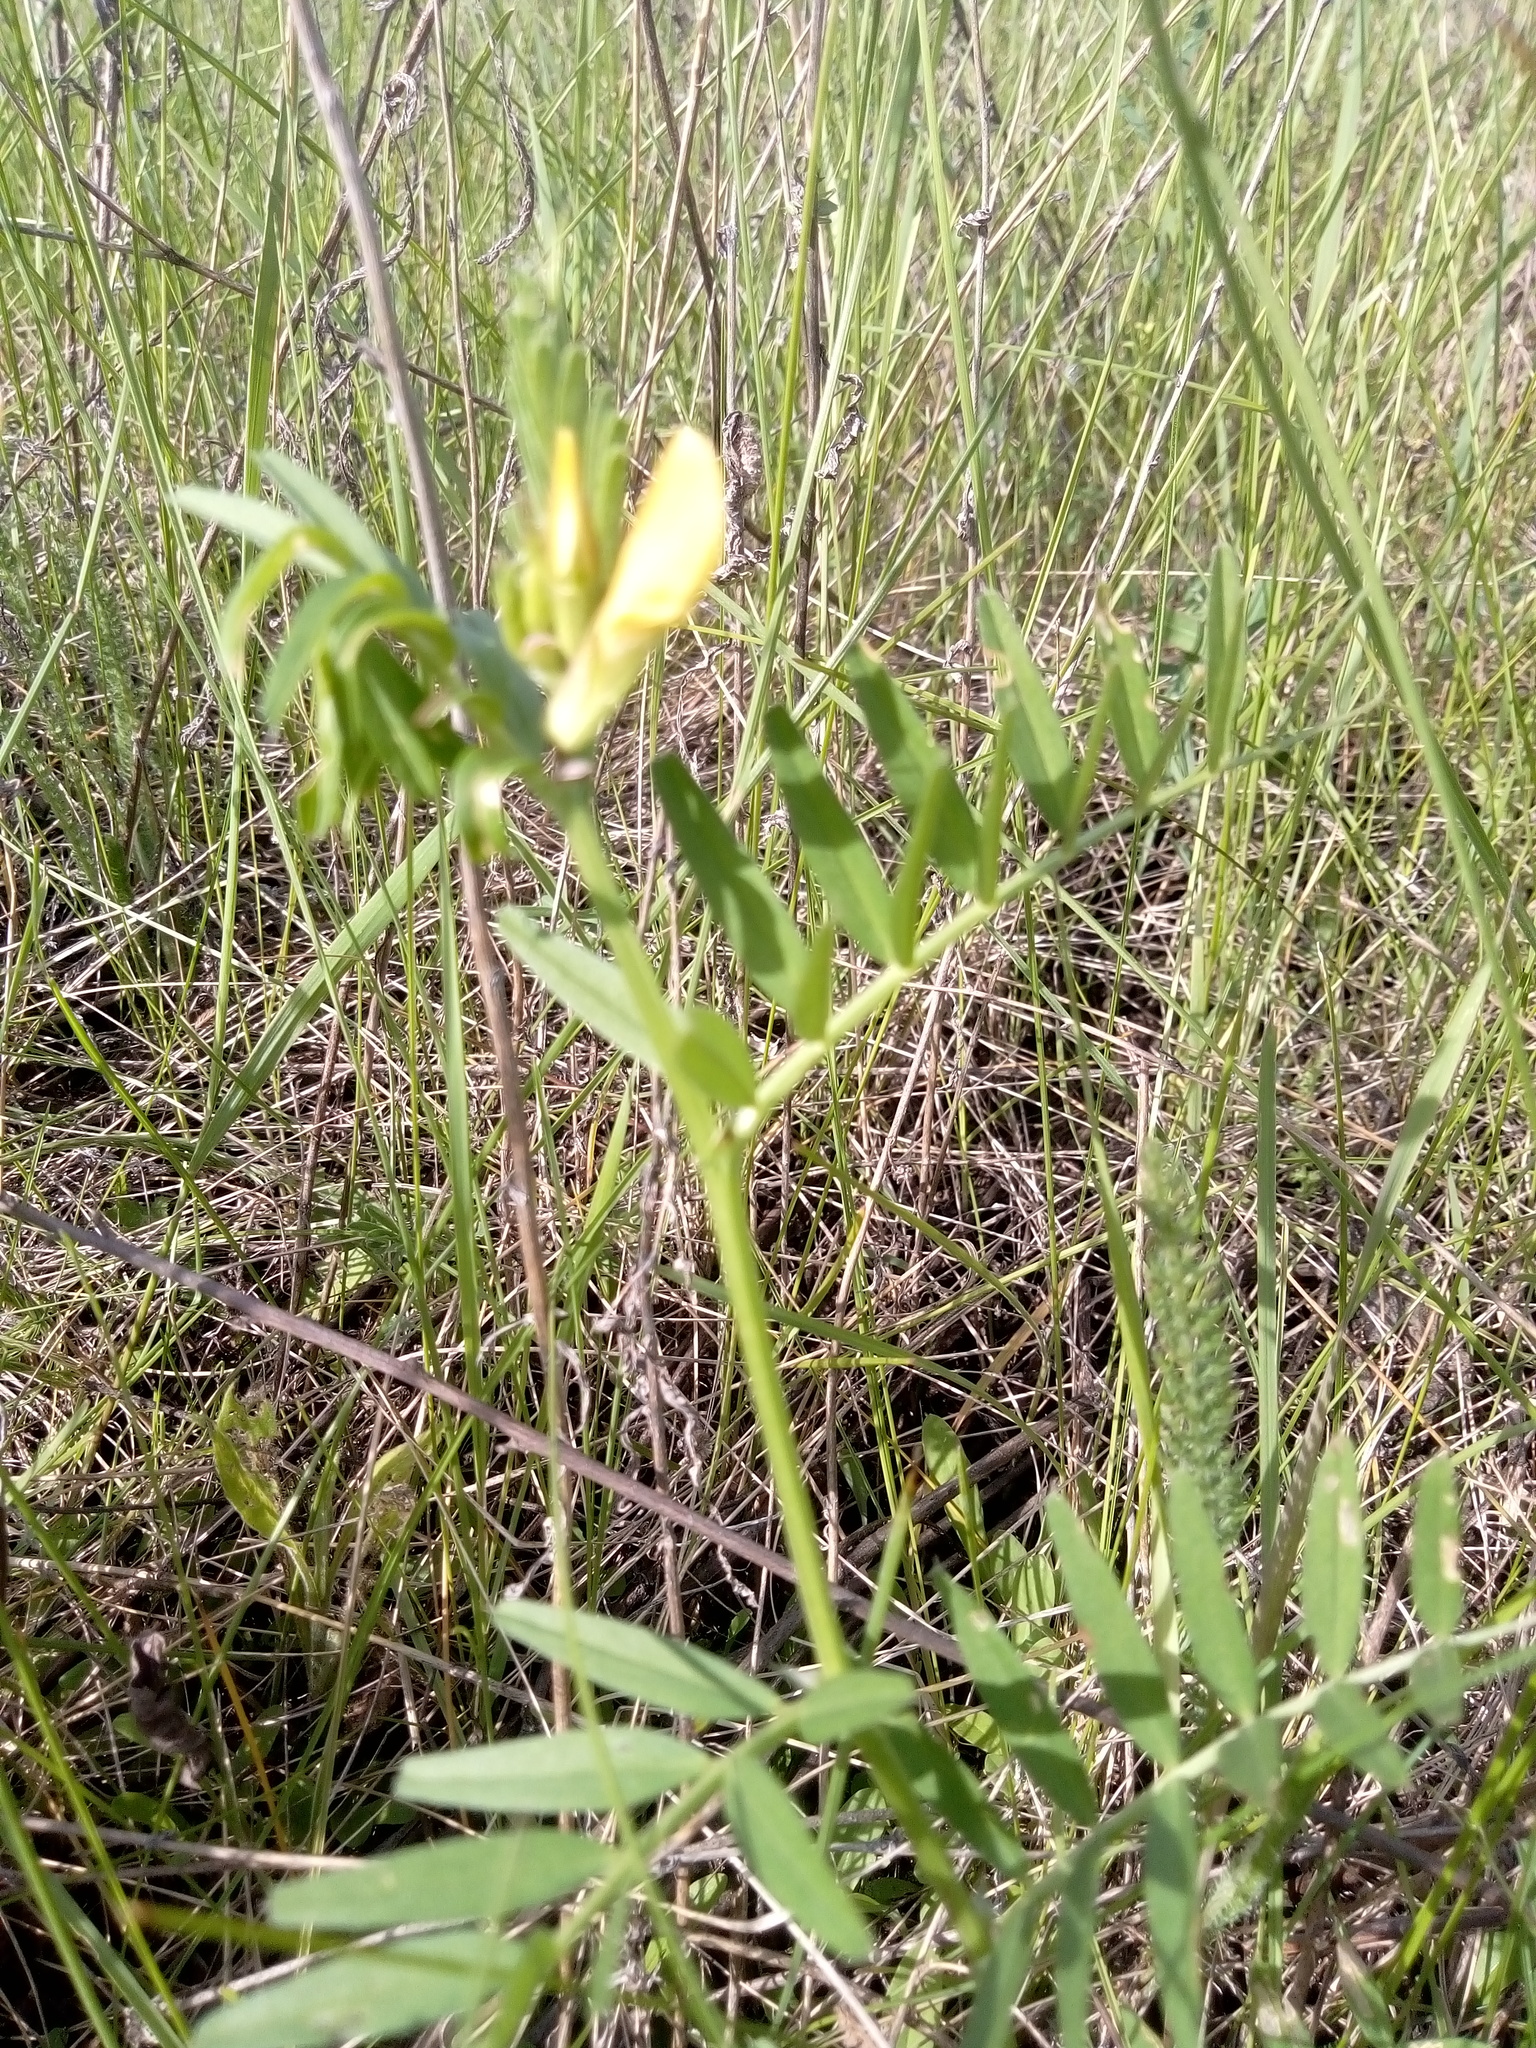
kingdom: Plantae
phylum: Tracheophyta
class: Magnoliopsida
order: Fabales
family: Fabaceae
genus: Vicia
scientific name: Vicia grandiflora
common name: Large yellow vetch
